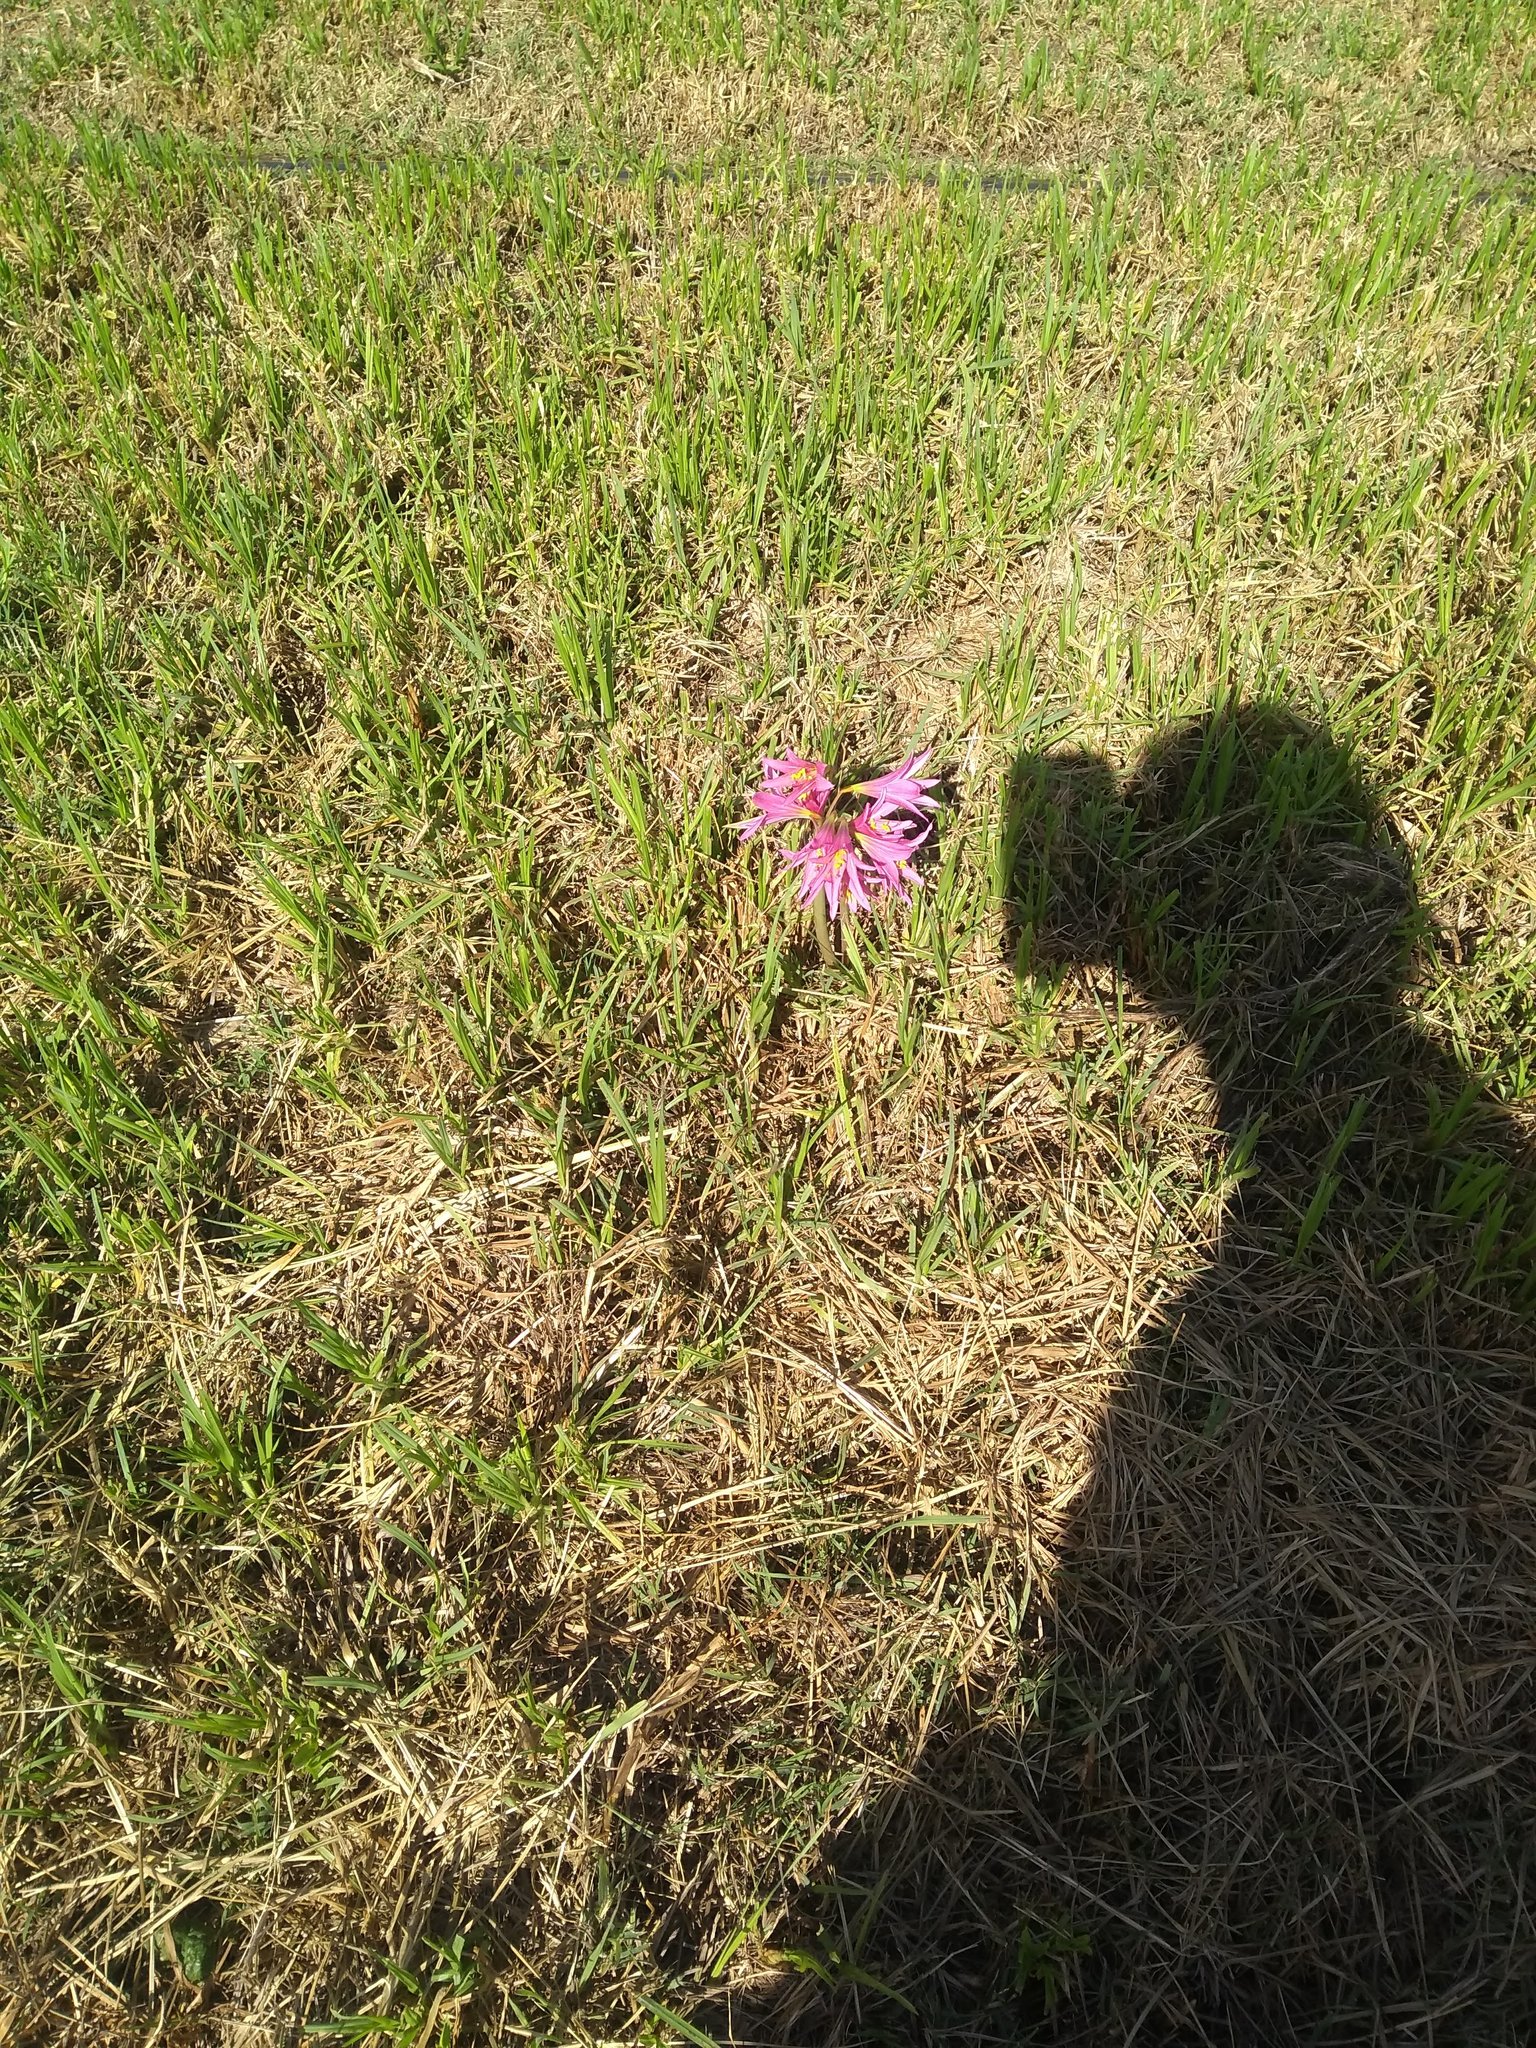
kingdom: Plantae
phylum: Tracheophyta
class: Liliopsida
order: Asparagales
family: Amaryllidaceae
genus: Zephyranthes
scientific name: Zephyranthes bifida
